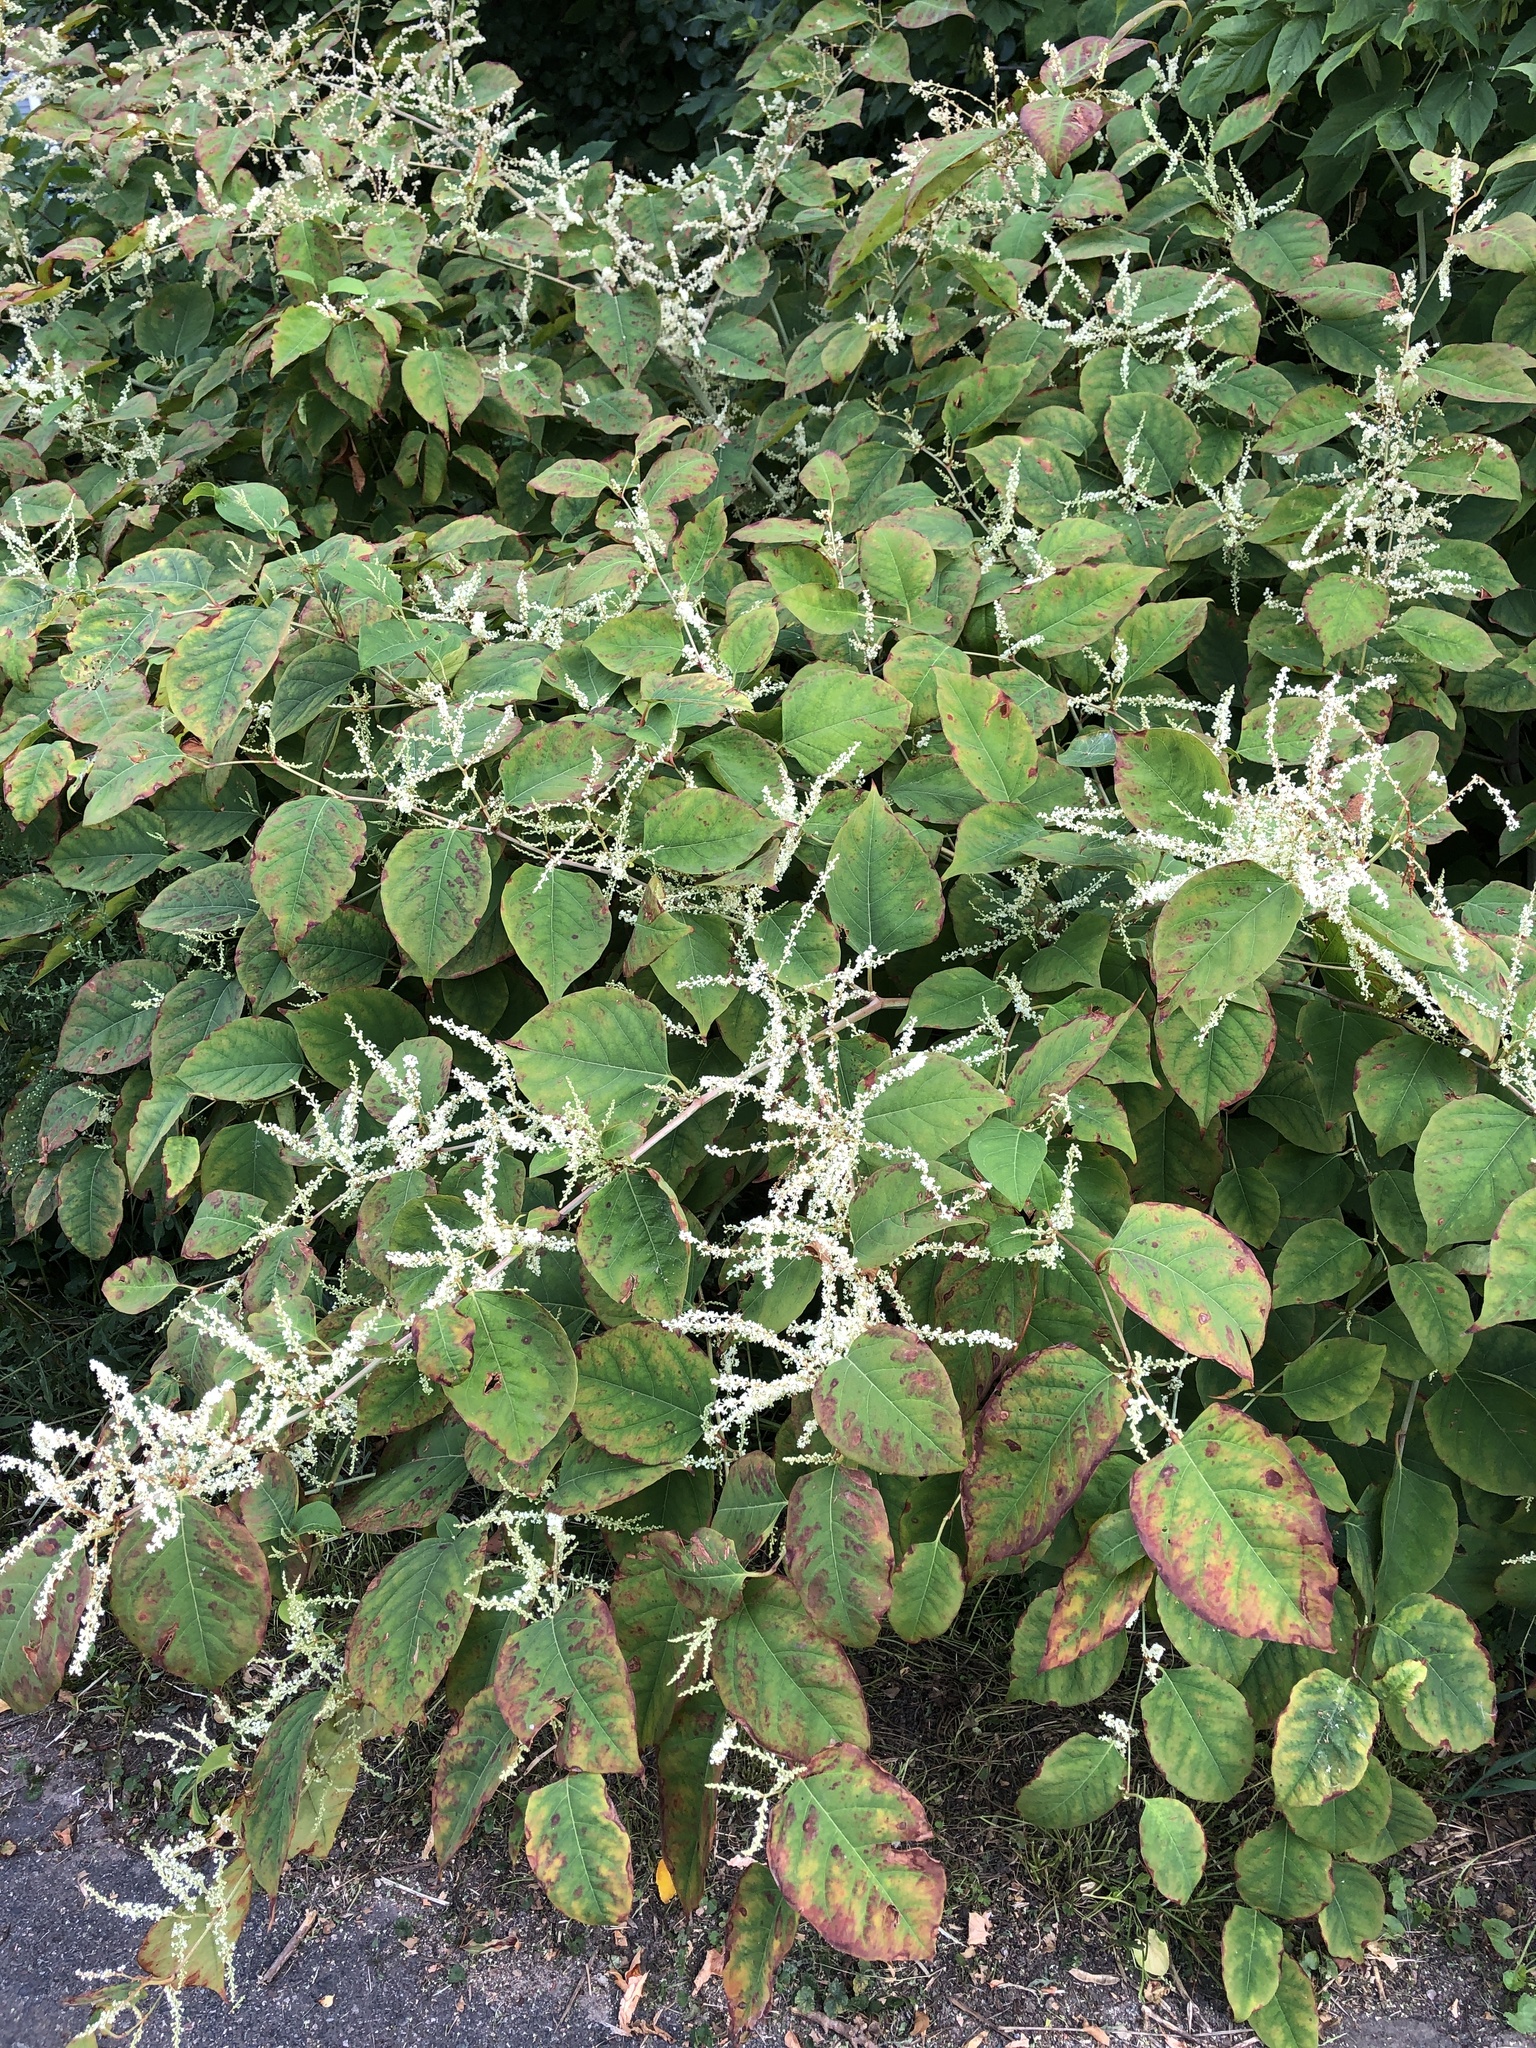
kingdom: Plantae
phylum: Tracheophyta
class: Magnoliopsida
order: Caryophyllales
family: Polygonaceae
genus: Reynoutria
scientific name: Reynoutria japonica
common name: Japanese knotweed
